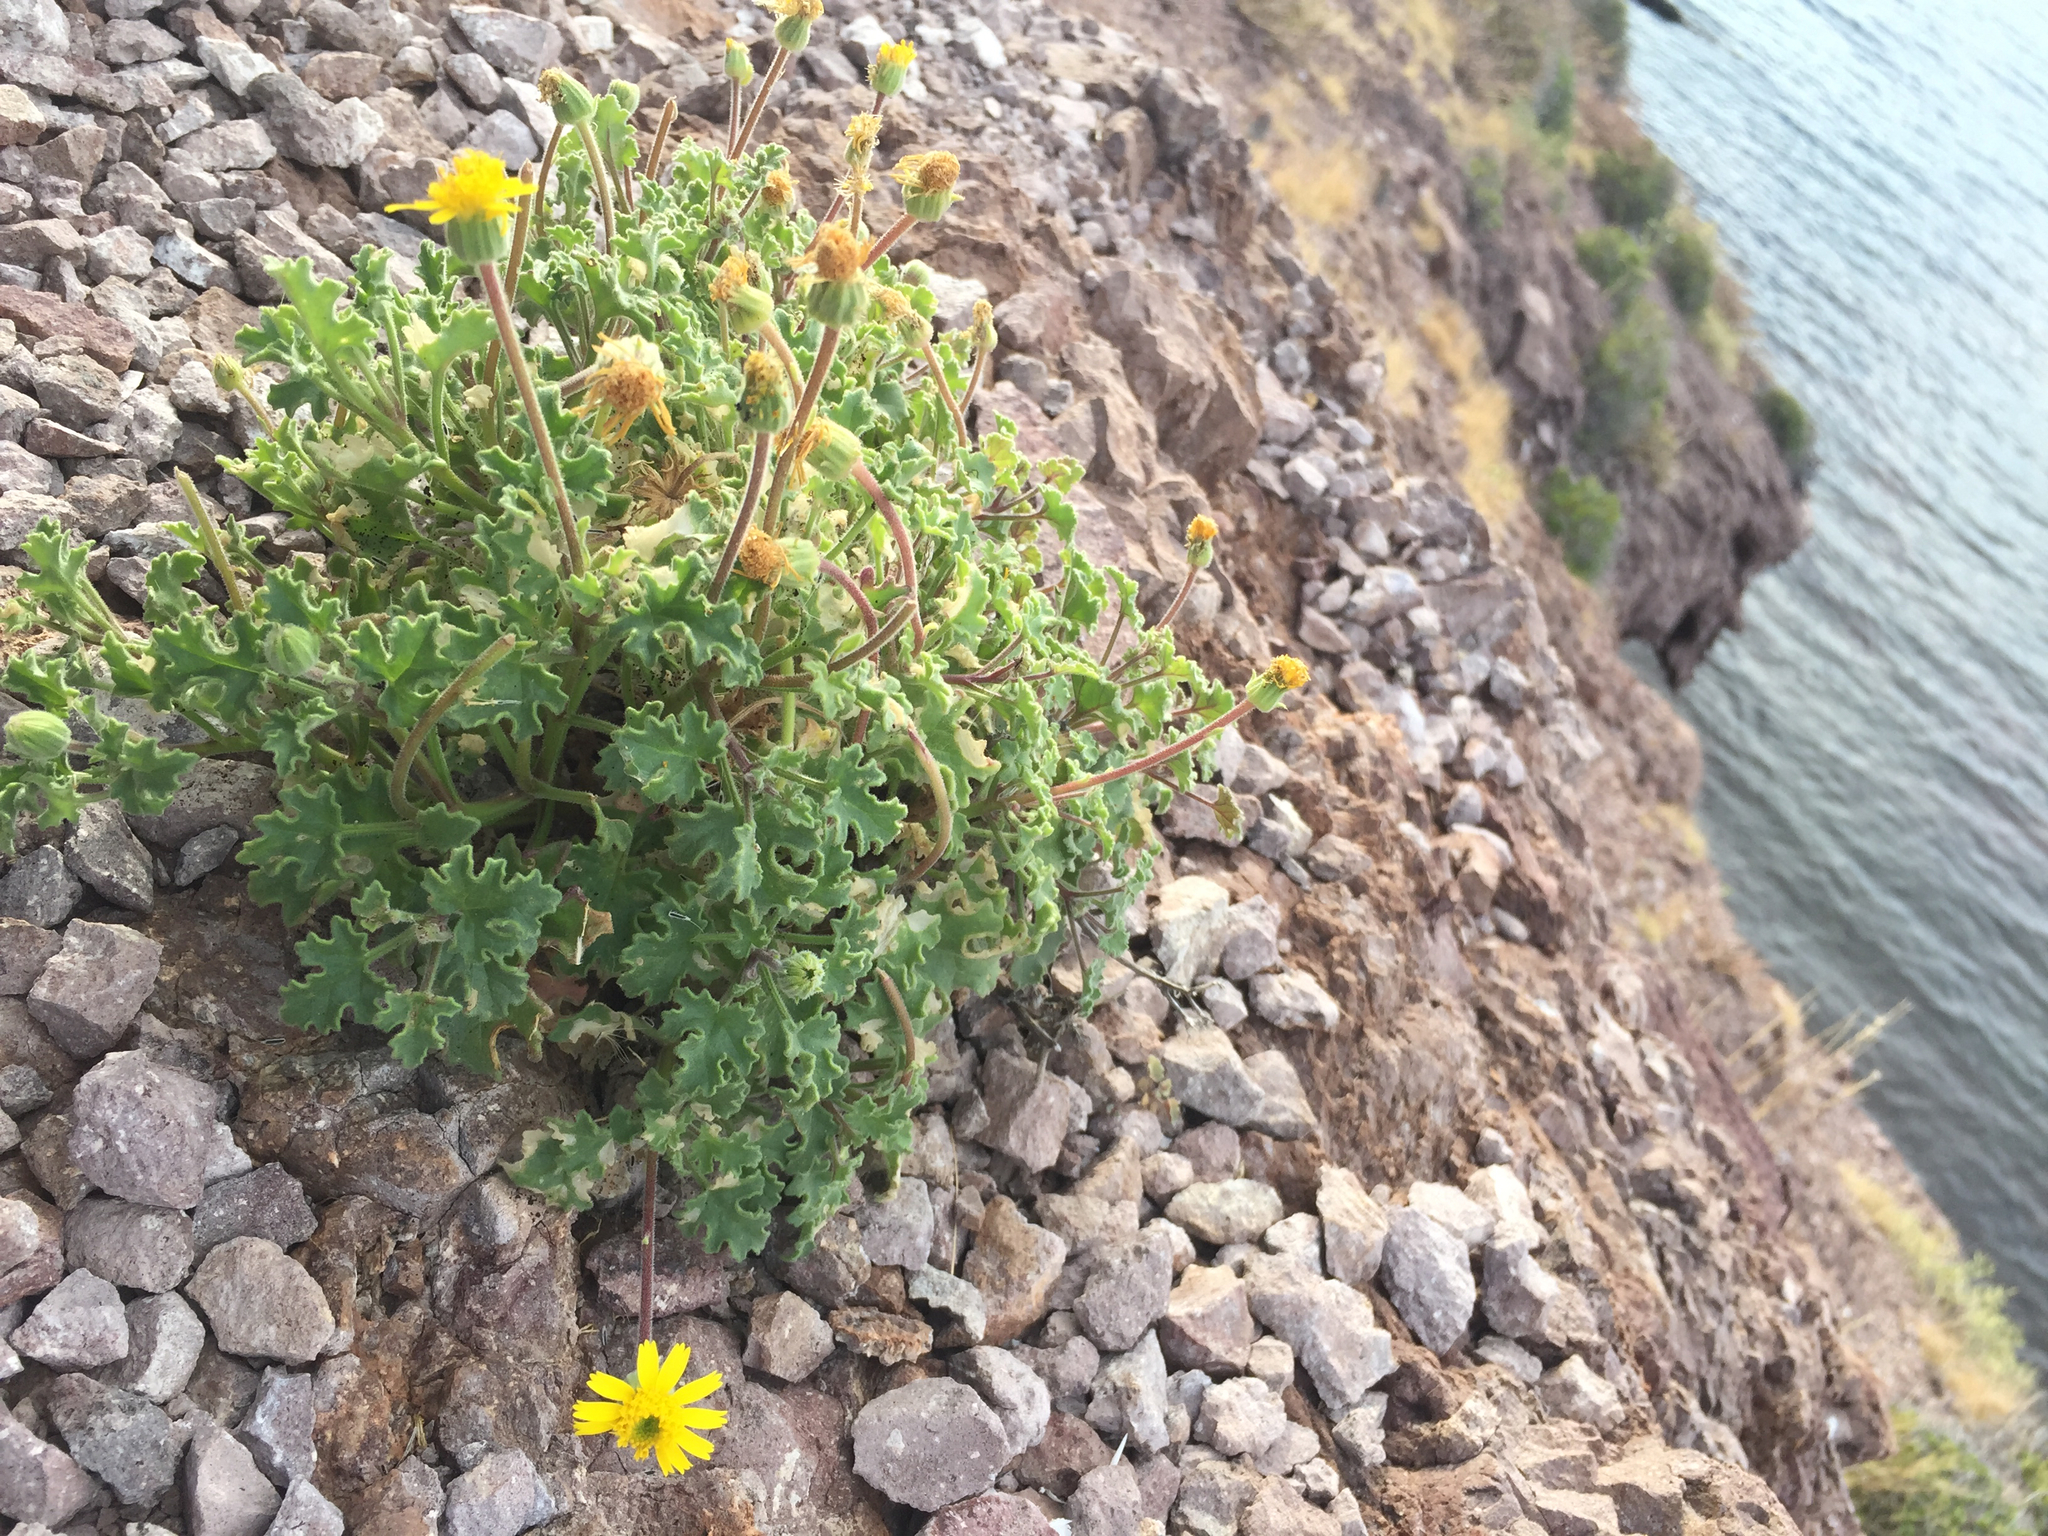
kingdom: Plantae
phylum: Tracheophyta
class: Magnoliopsida
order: Asterales
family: Asteraceae
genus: Laphamia
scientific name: Laphamia leptoglossa
